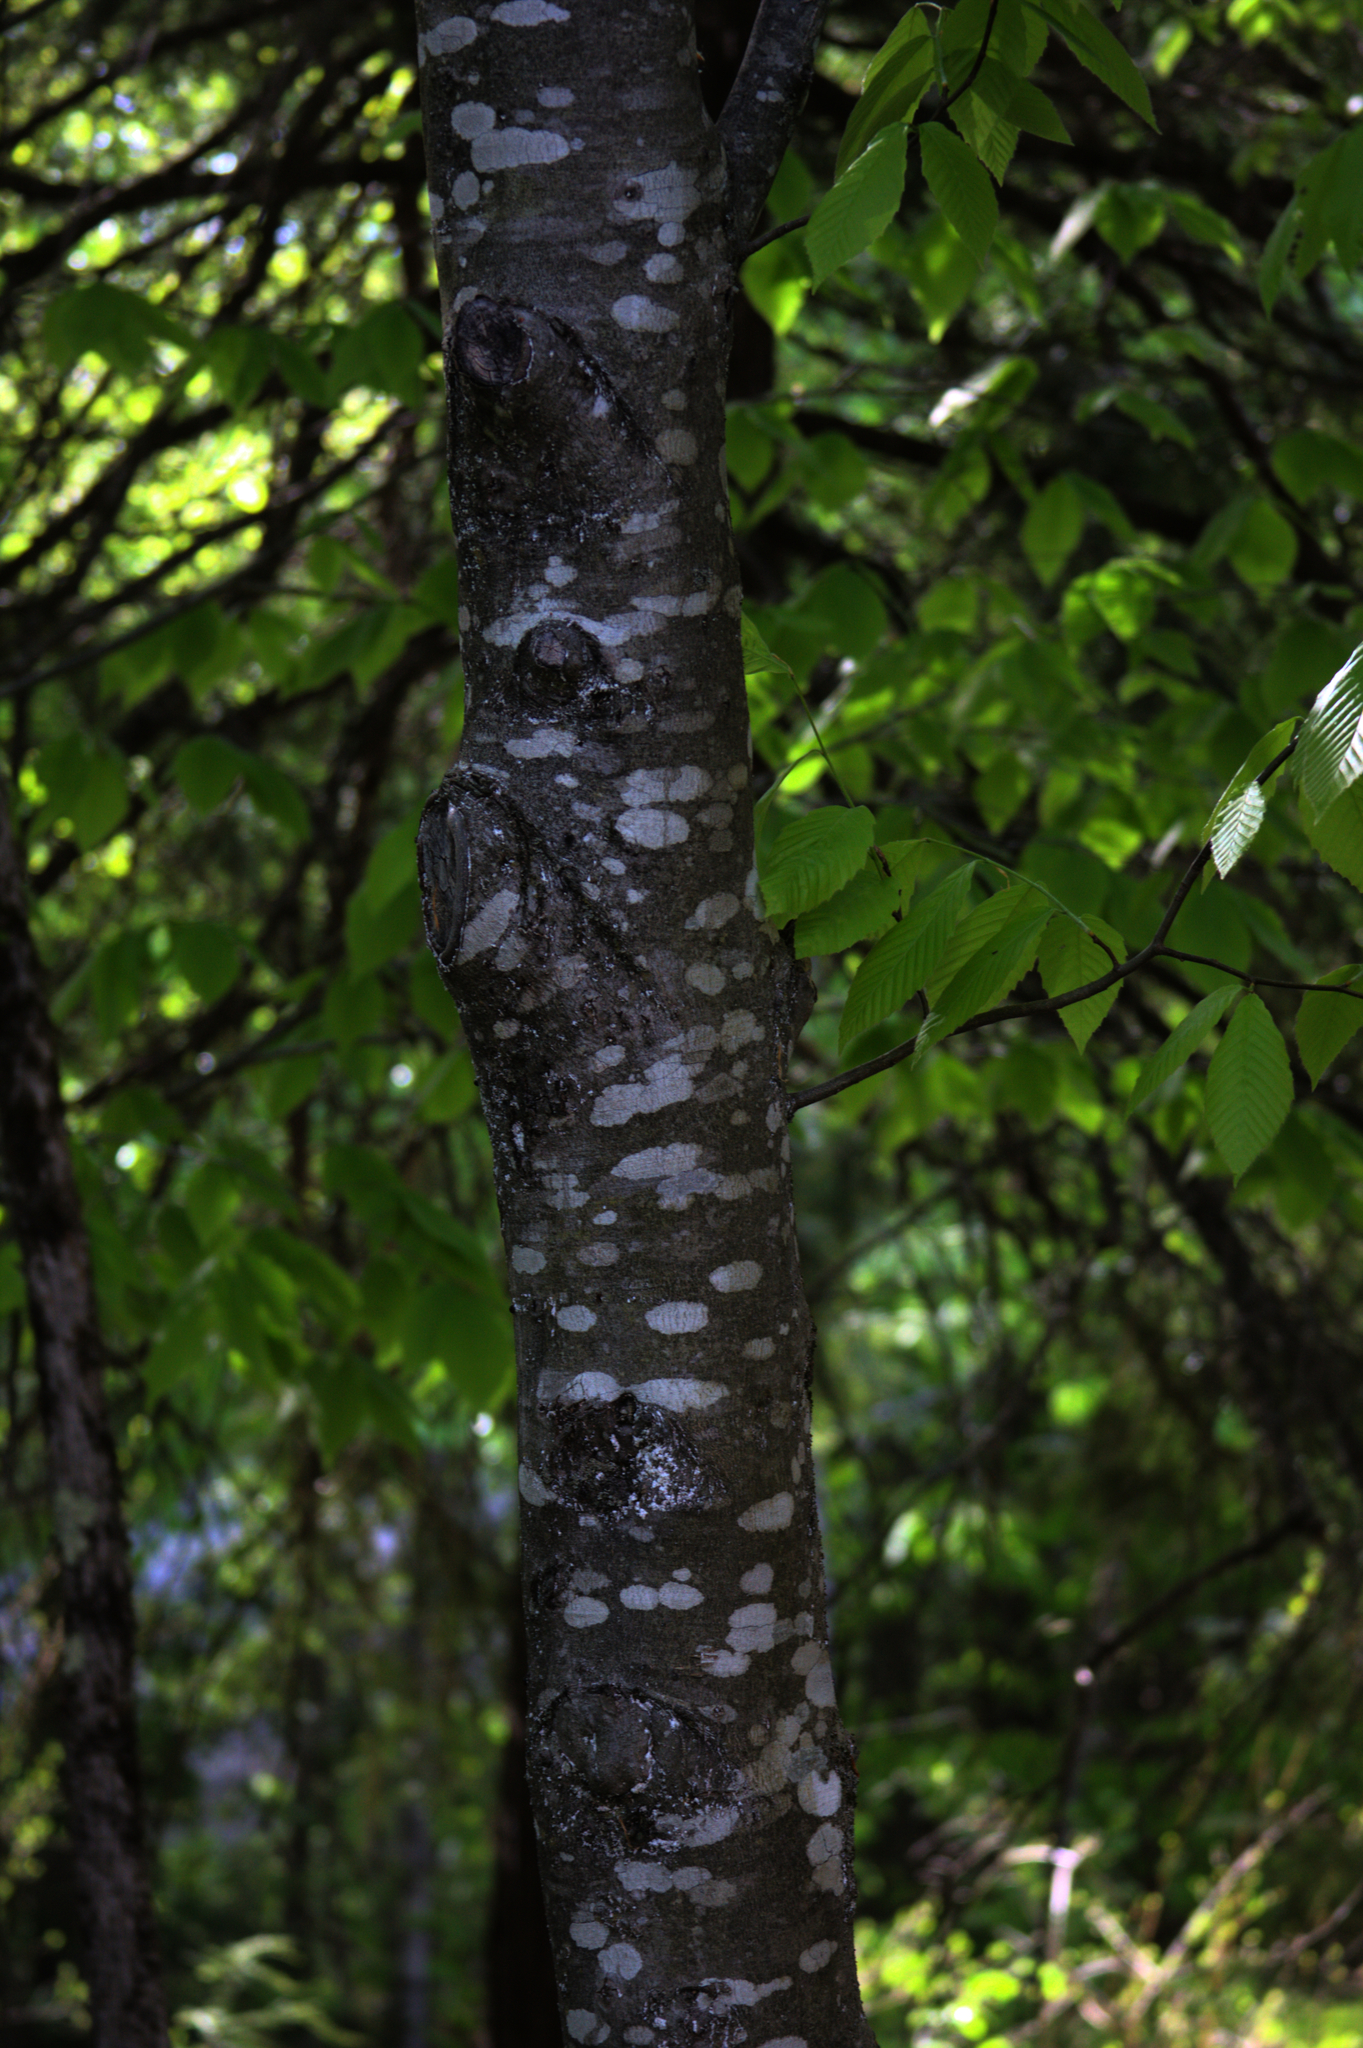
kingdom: Plantae
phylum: Tracheophyta
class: Magnoliopsida
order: Fagales
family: Fagaceae
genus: Fagus
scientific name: Fagus grandifolia
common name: American beech
